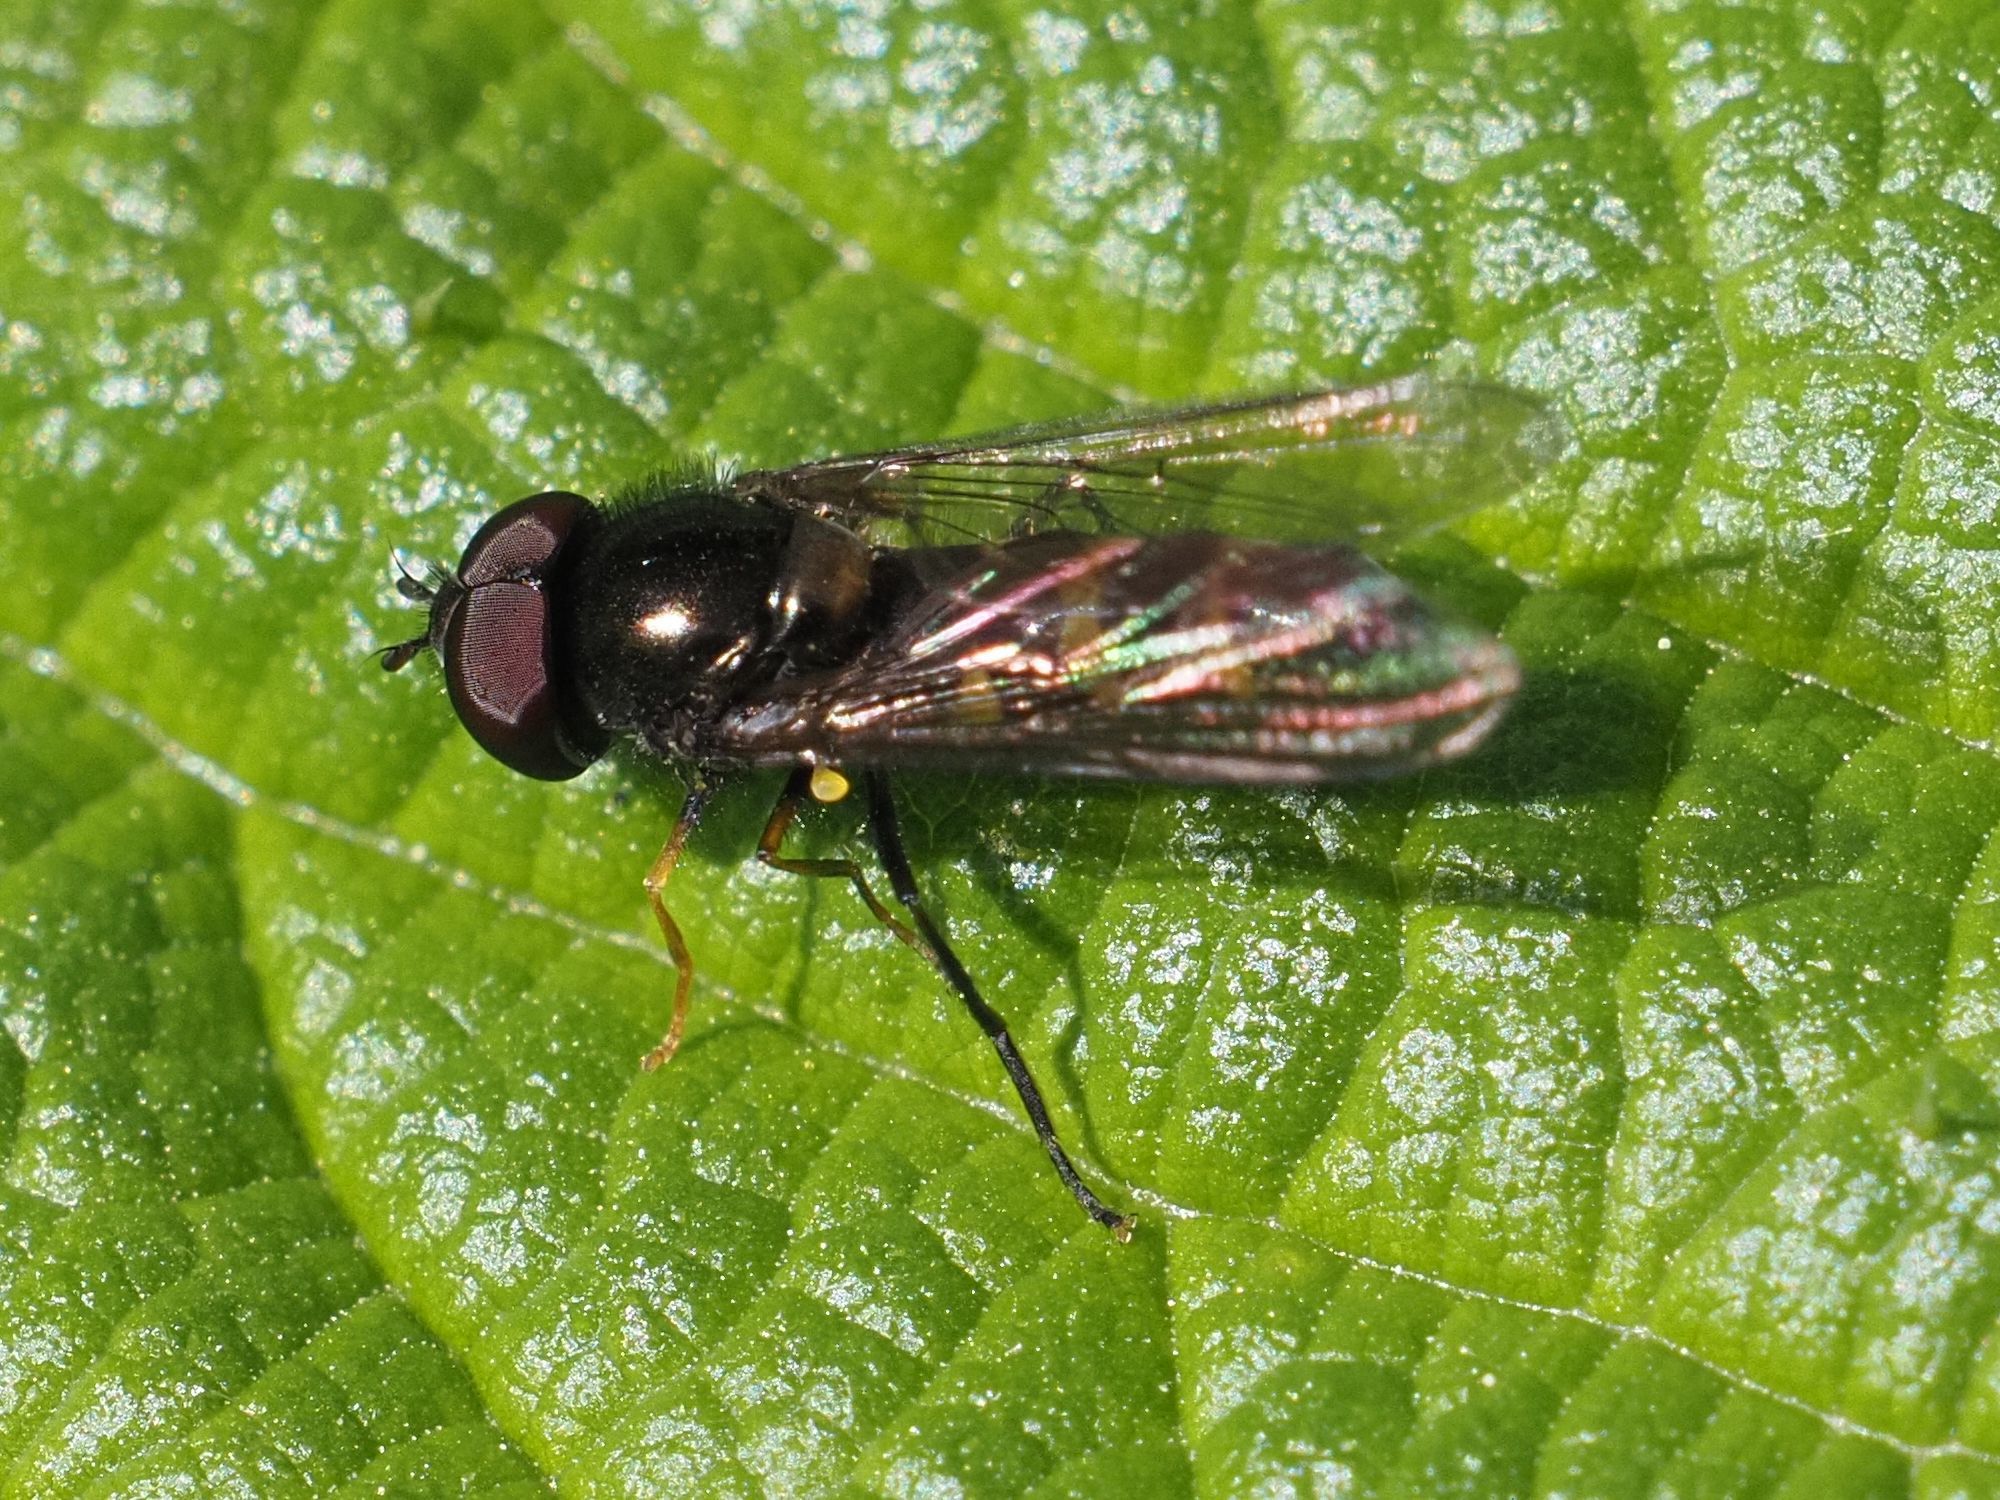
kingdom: Animalia
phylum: Arthropoda
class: Insecta
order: Diptera
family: Syrphidae
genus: Meligramma
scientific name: Meligramma cingulata
